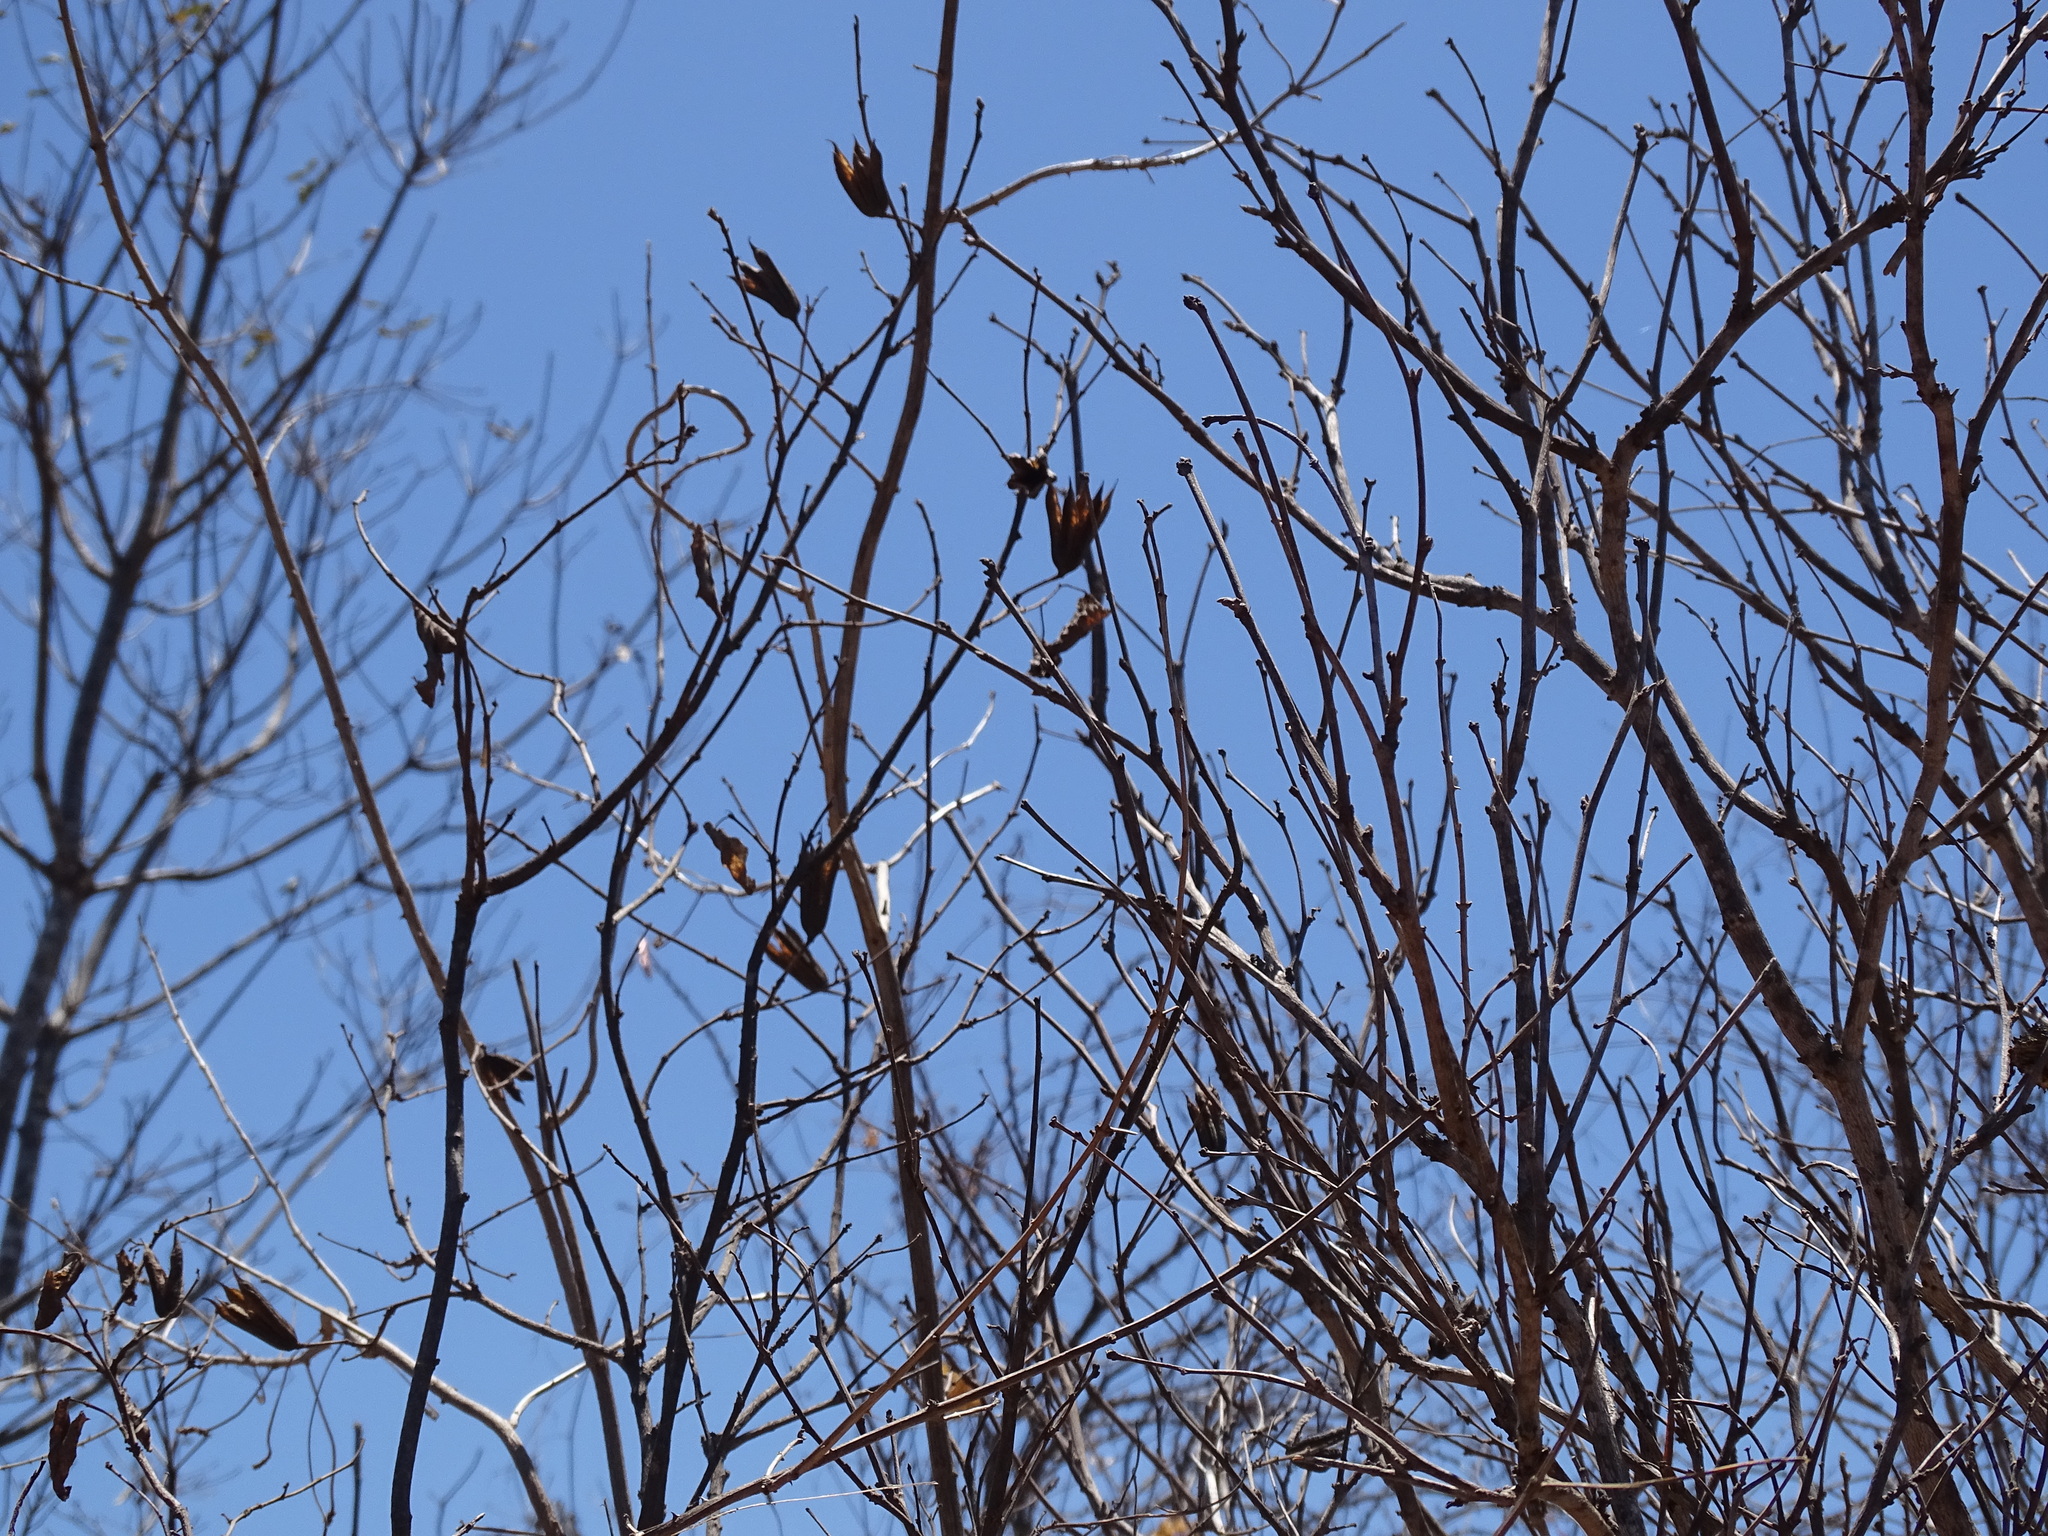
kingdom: Plantae
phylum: Tracheophyta
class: Magnoliopsida
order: Malvales
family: Malvaceae
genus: Helicteres
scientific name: Helicteres vegae
